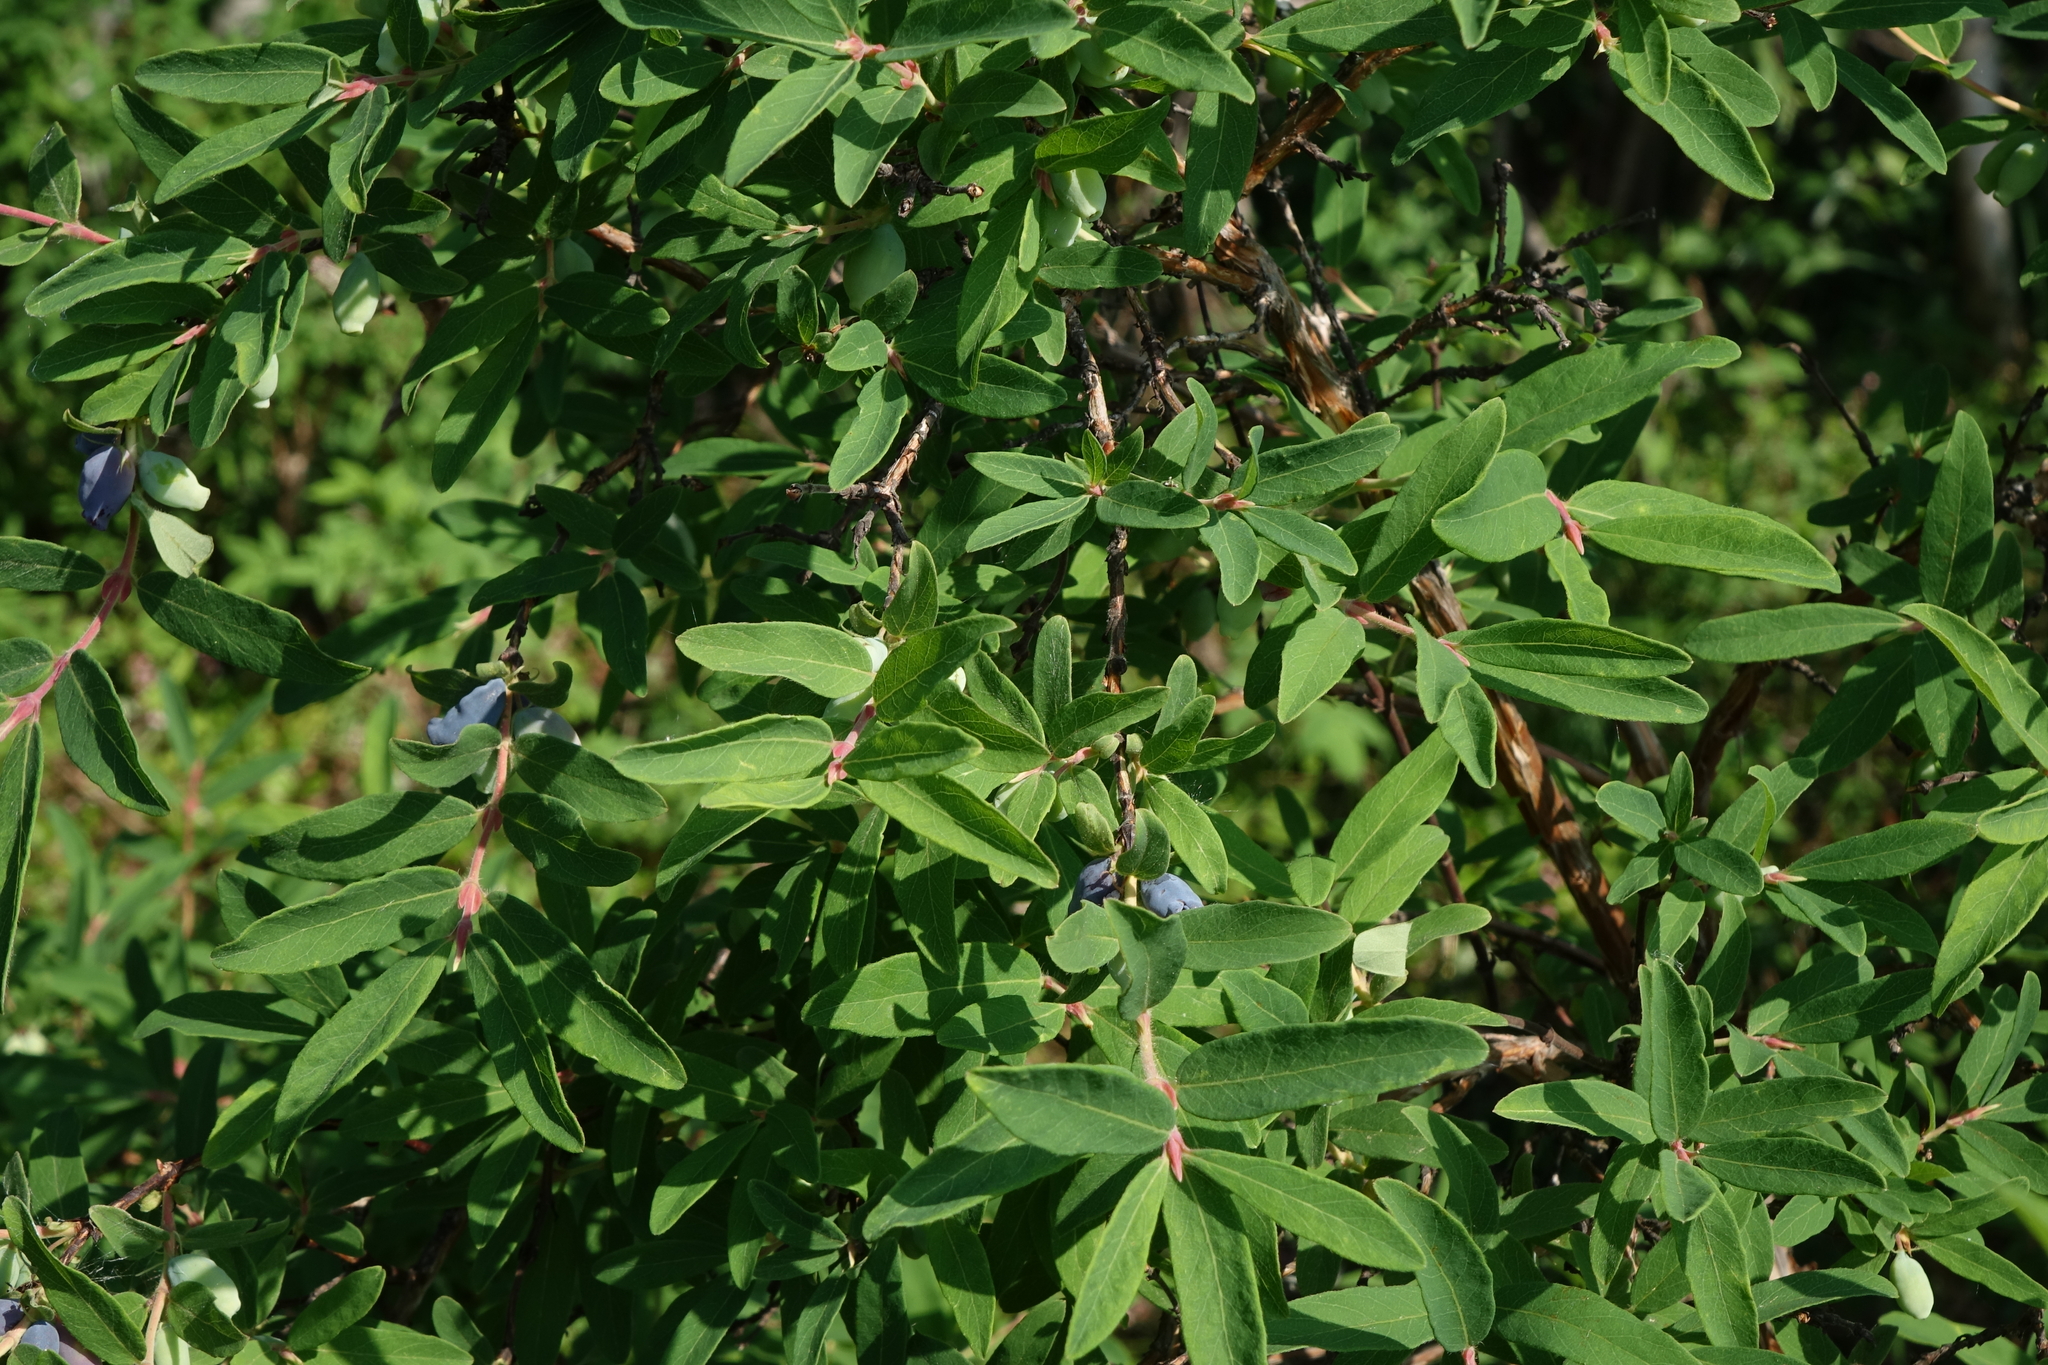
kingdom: Plantae
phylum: Tracheophyta
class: Magnoliopsida
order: Dipsacales
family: Caprifoliaceae
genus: Lonicera
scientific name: Lonicera caerulea
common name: Blue honeysuckle
